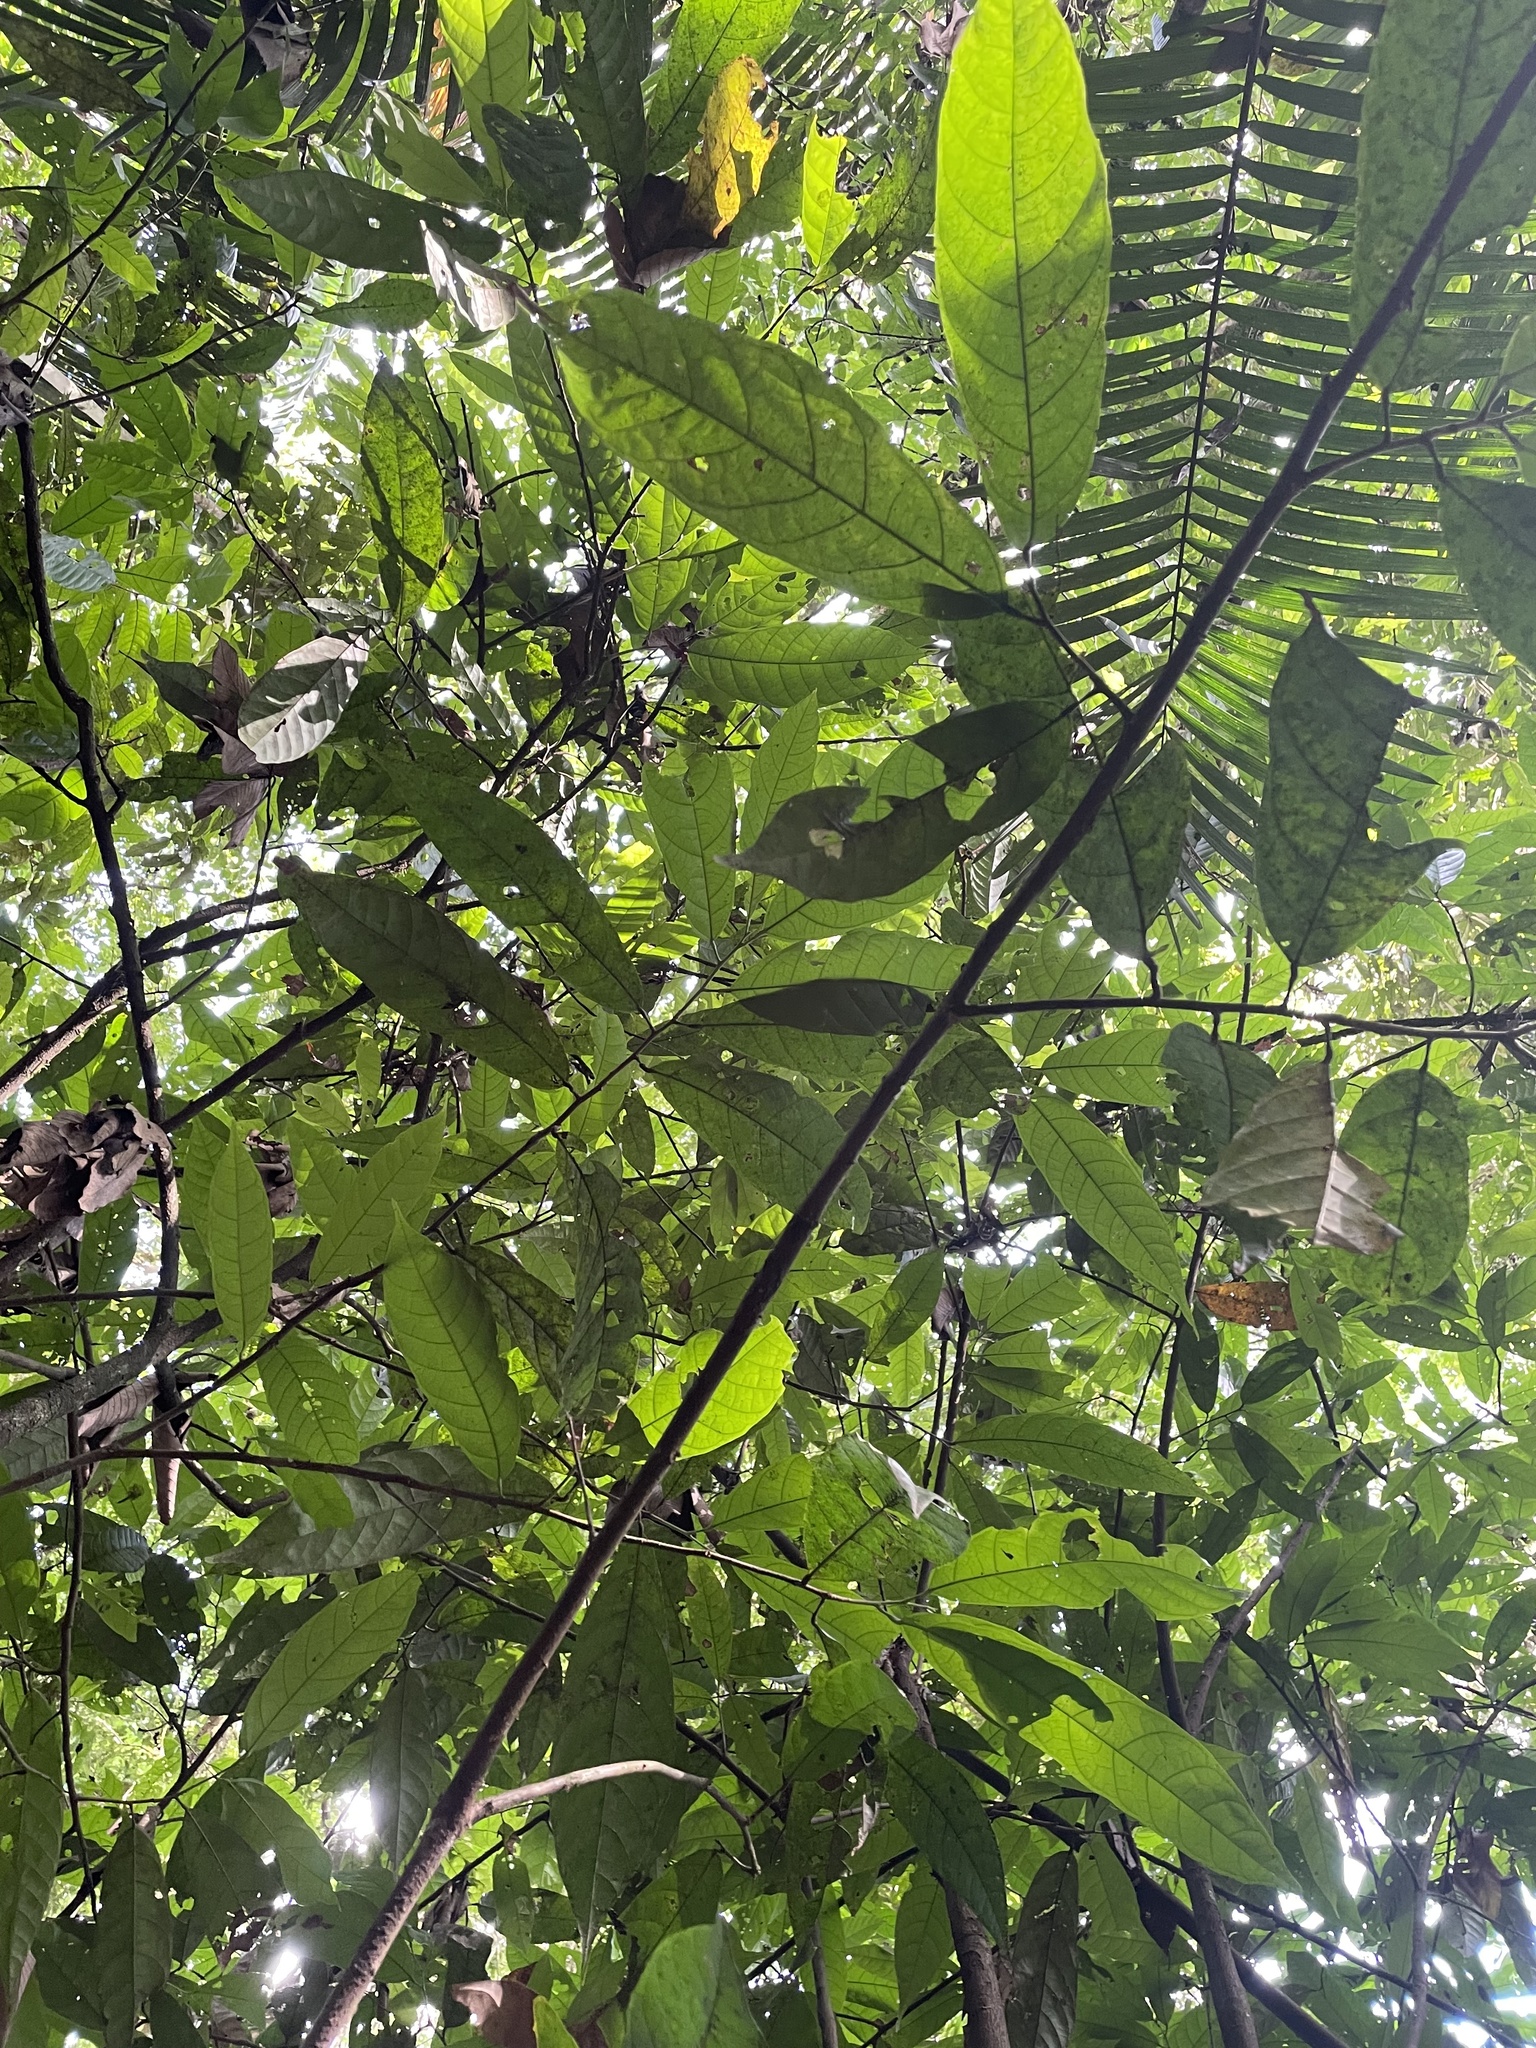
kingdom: Plantae
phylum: Tracheophyta
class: Magnoliopsida
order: Malvales
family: Malvaceae
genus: Theobroma
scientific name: Theobroma cacao
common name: Cocoa
